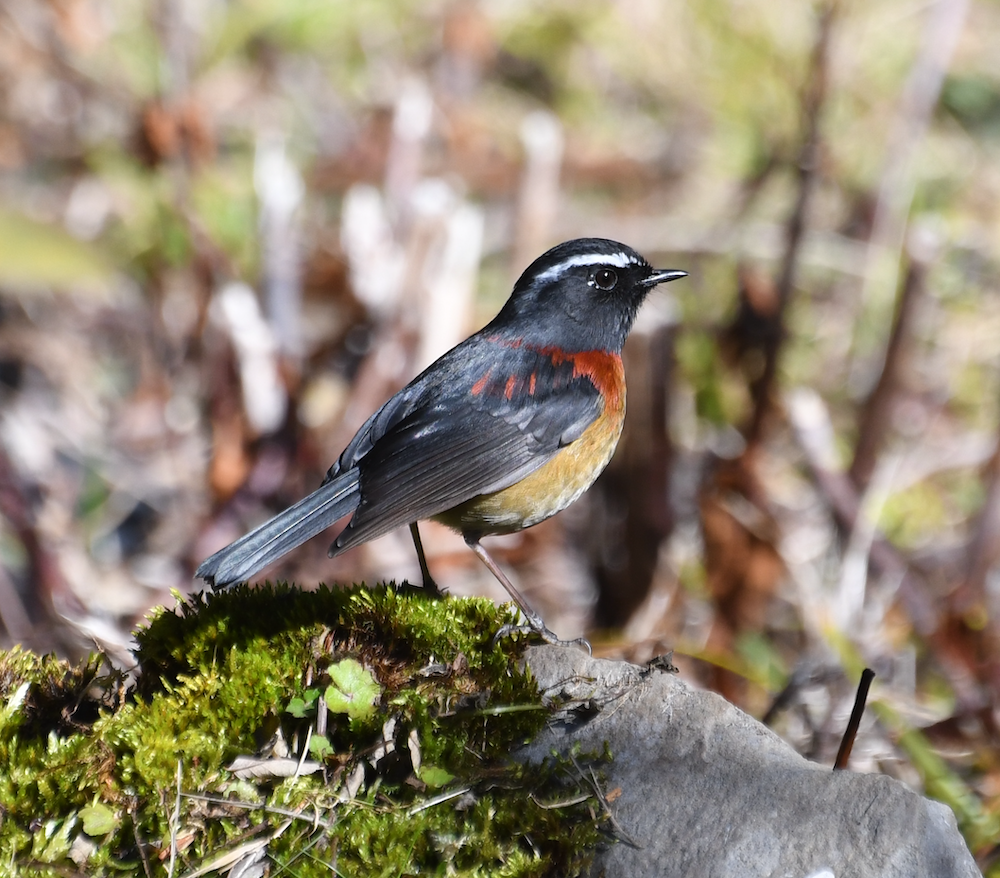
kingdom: Animalia
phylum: Chordata
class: Aves
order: Passeriformes
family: Muscicapidae
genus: Tarsiger
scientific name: Tarsiger johnstoniae
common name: Collared bush robin
